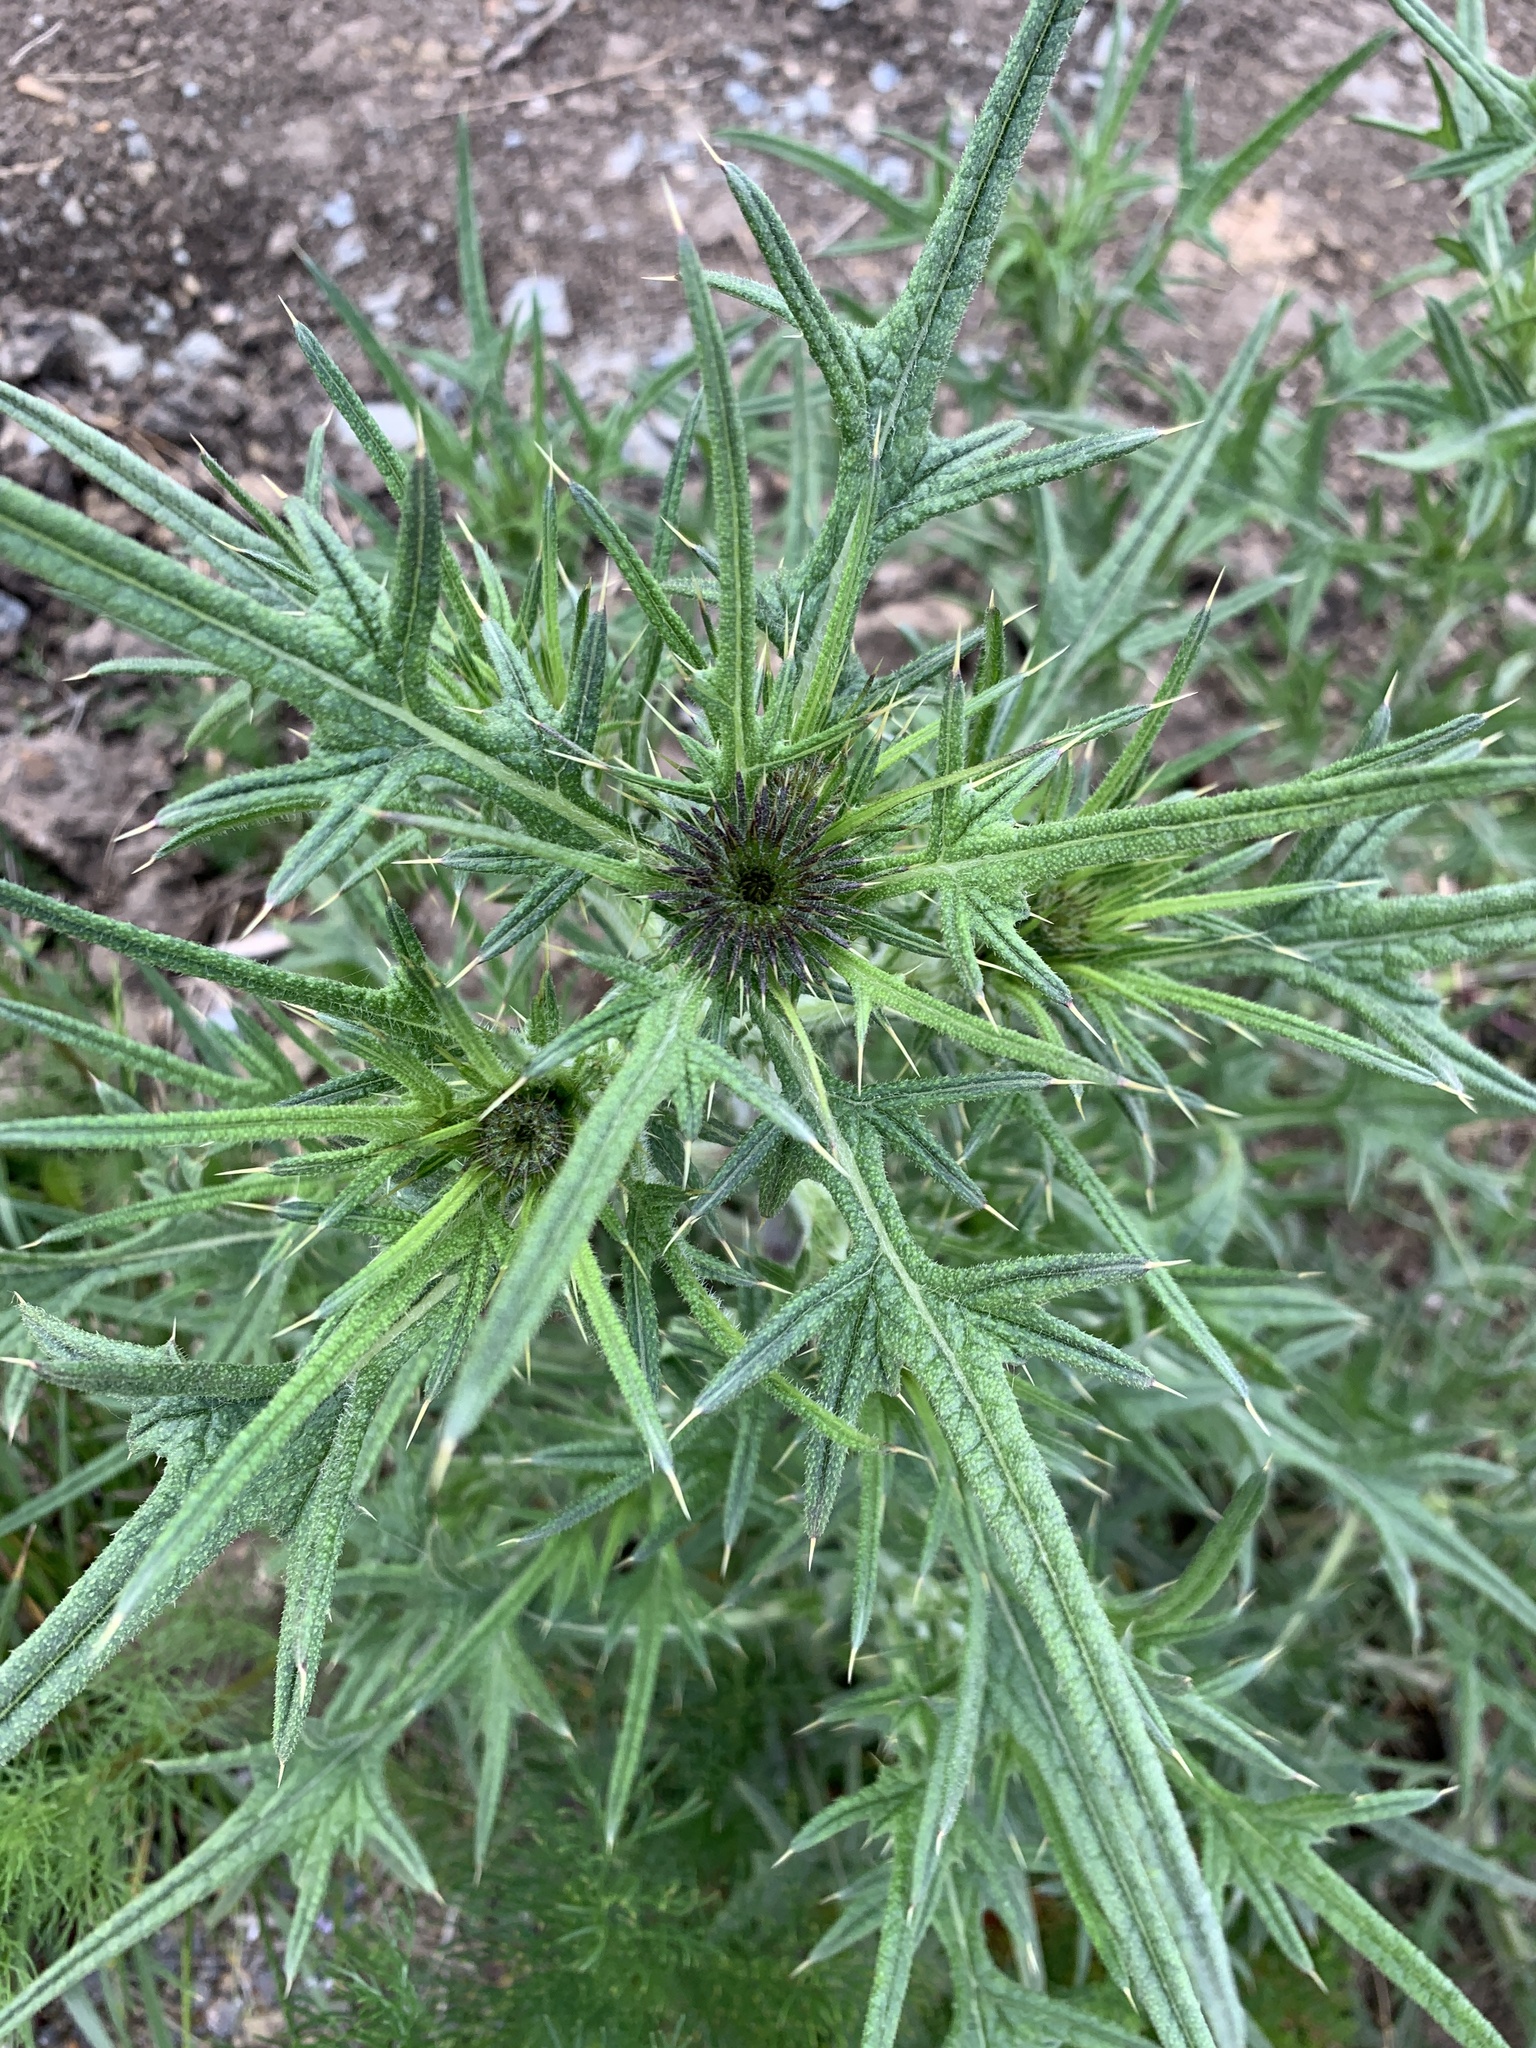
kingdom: Plantae
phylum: Tracheophyta
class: Magnoliopsida
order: Asterales
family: Asteraceae
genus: Cirsium
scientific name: Cirsium vulgare
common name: Bull thistle
